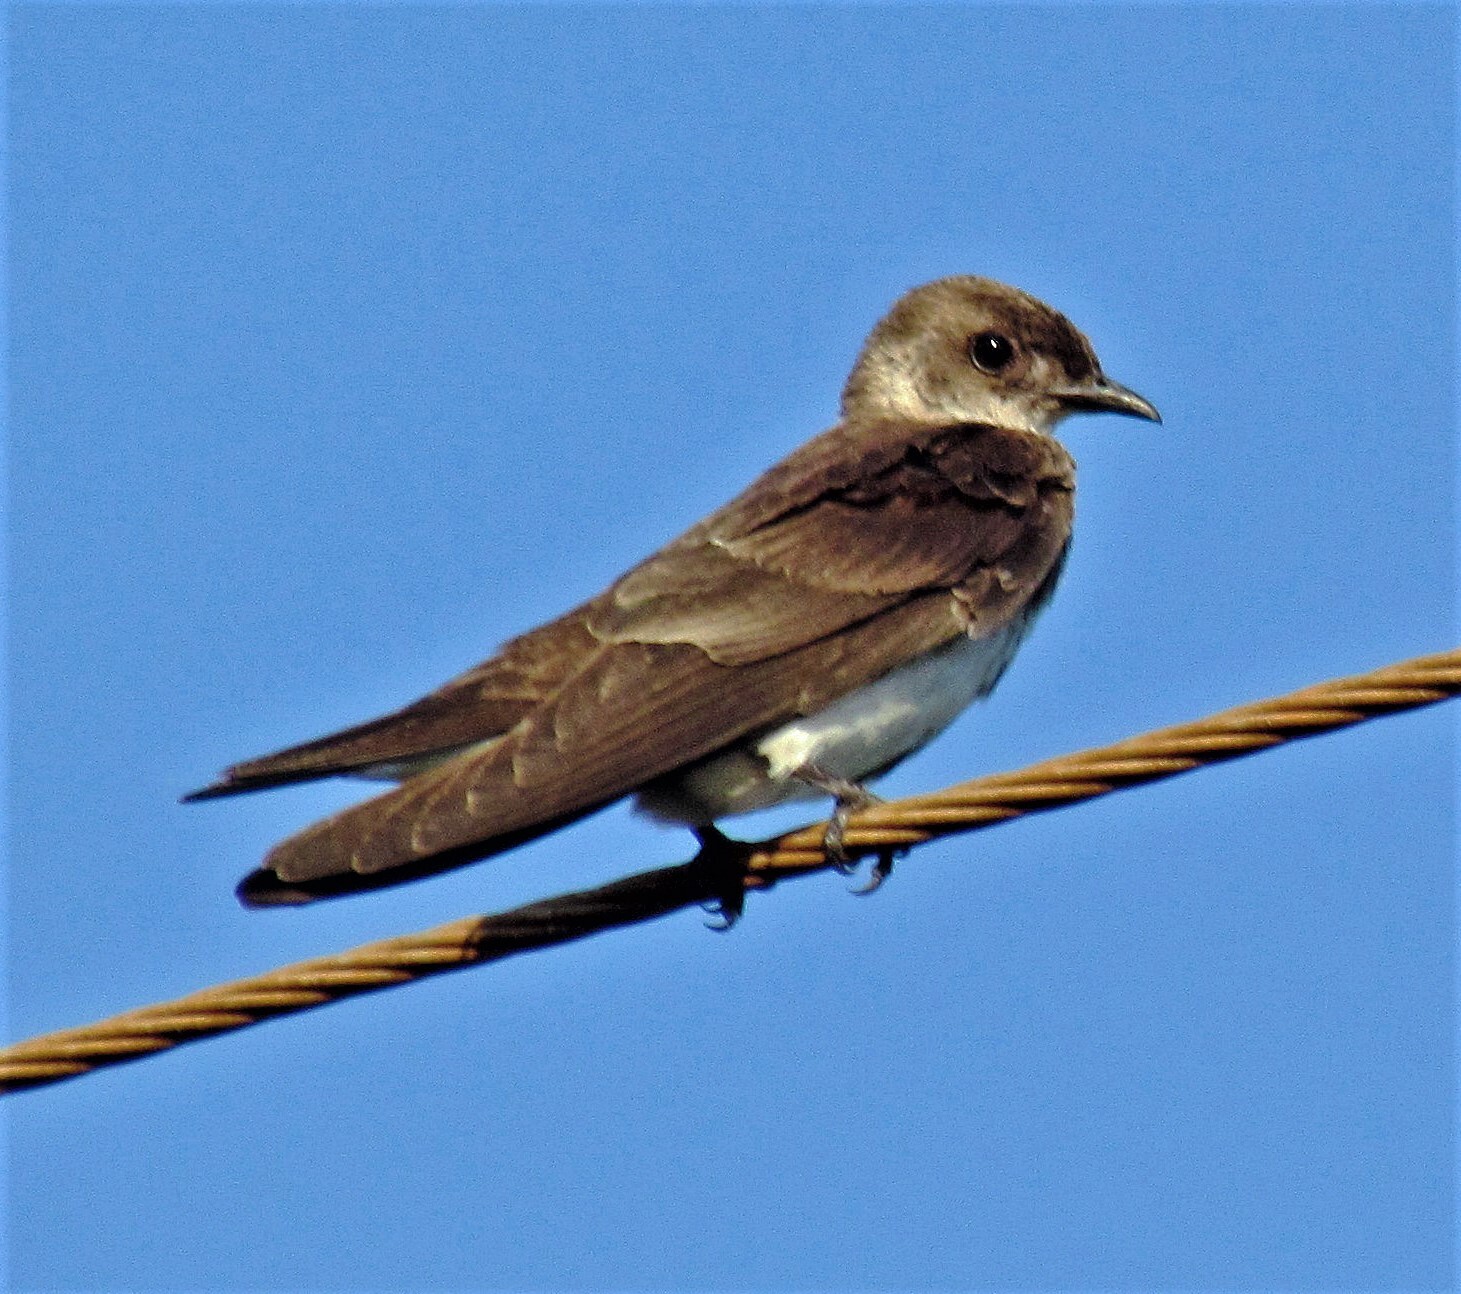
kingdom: Animalia
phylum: Chordata
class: Aves
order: Passeriformes
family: Hirundinidae
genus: Progne
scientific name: Progne tapera
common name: Brown-chested martin
